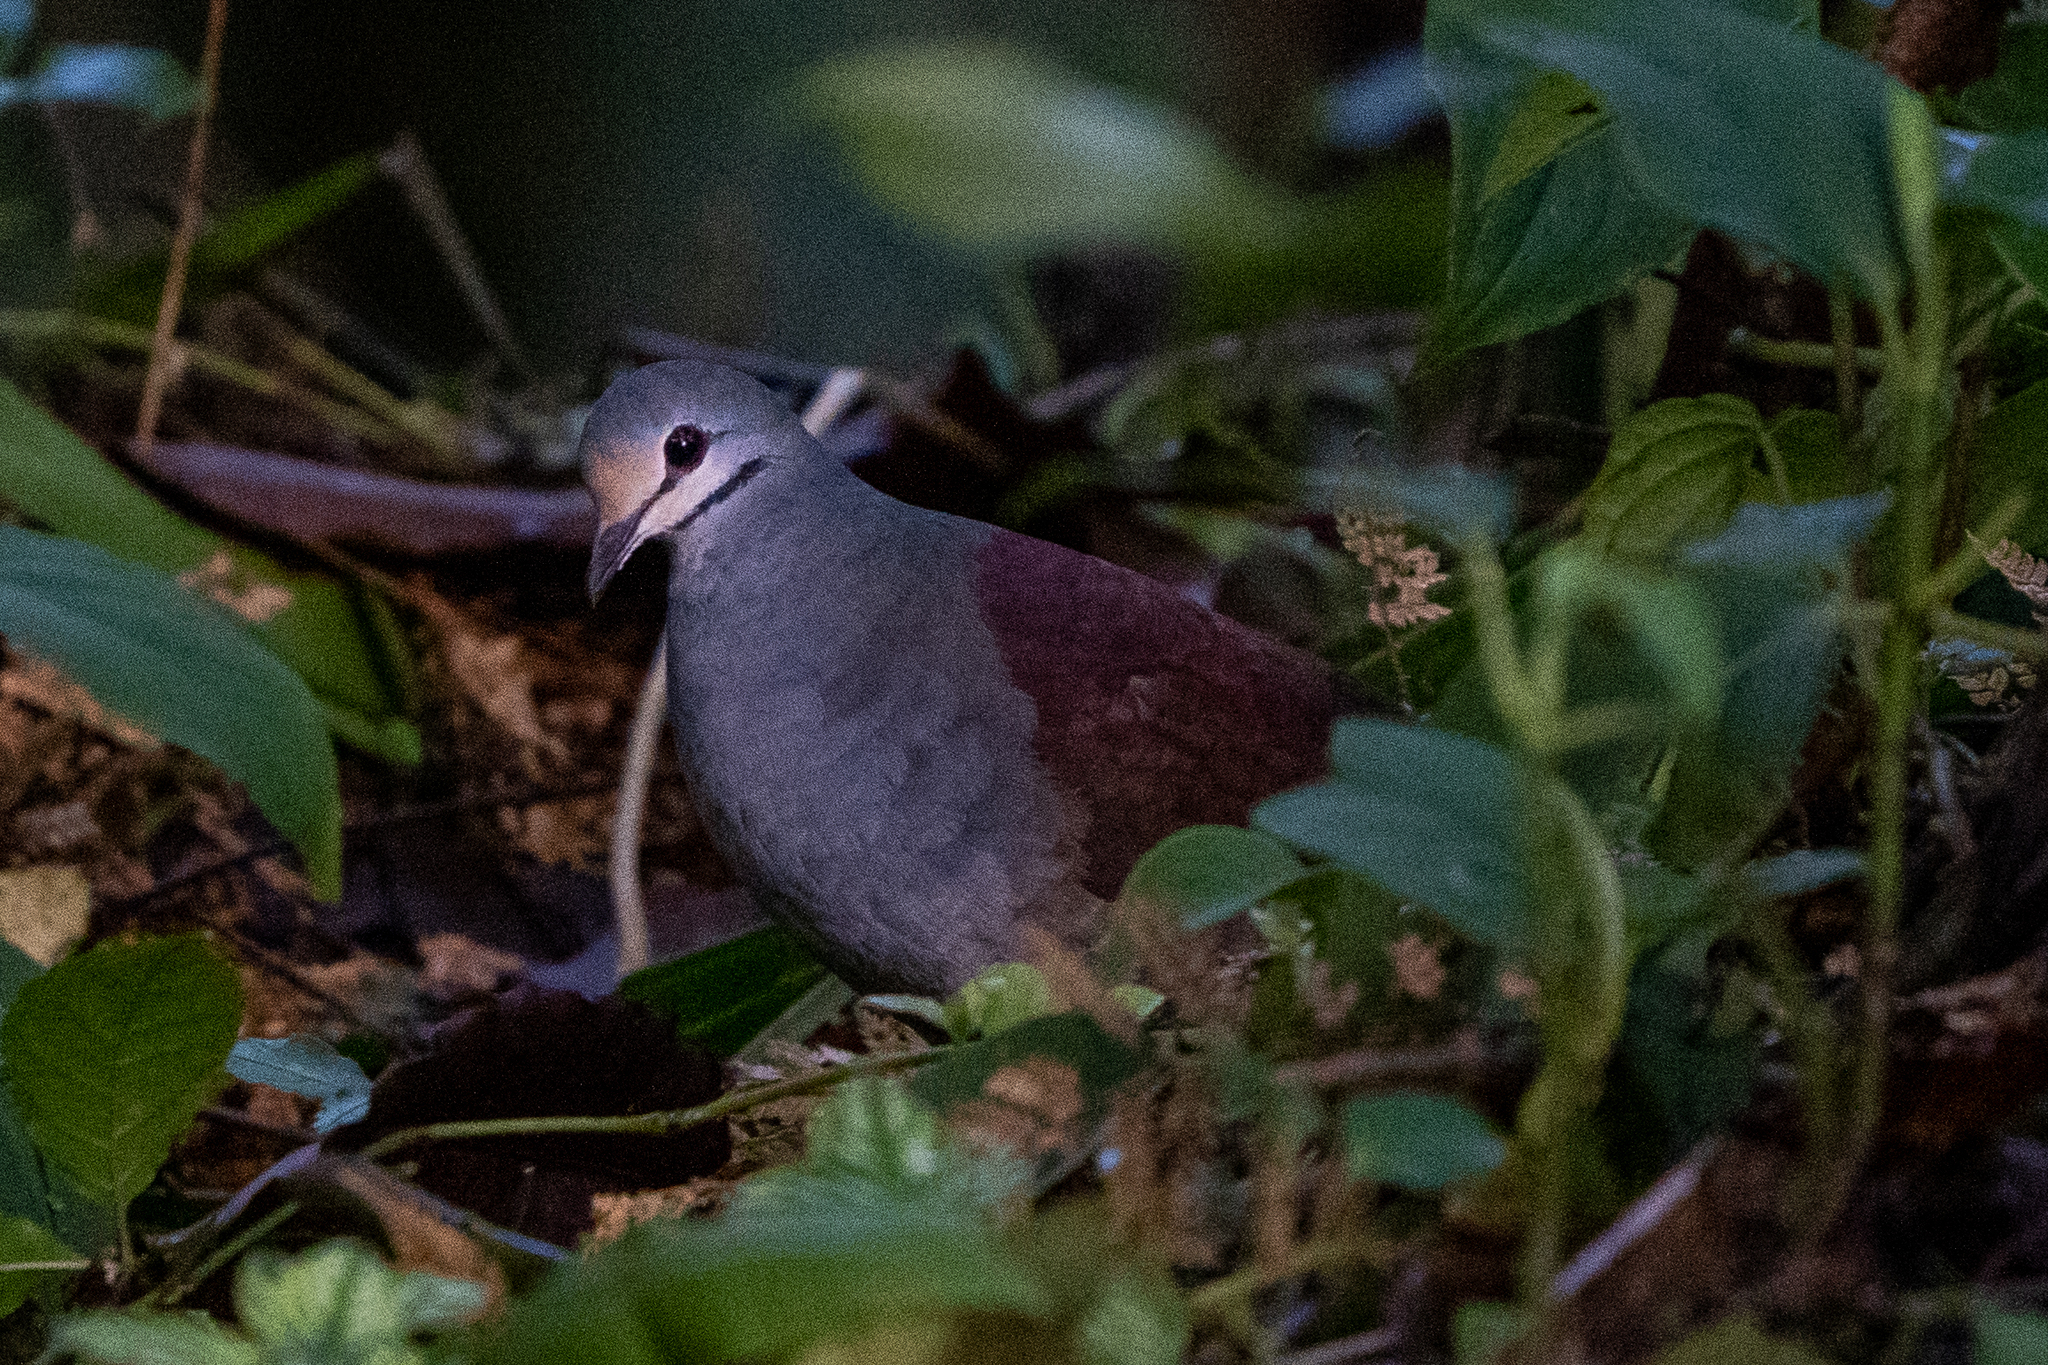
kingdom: Animalia
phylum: Chordata
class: Aves
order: Columbiformes
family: Columbidae
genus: Zentrygon
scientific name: Zentrygon costaricensis
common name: Buff-fronted quail-dove
